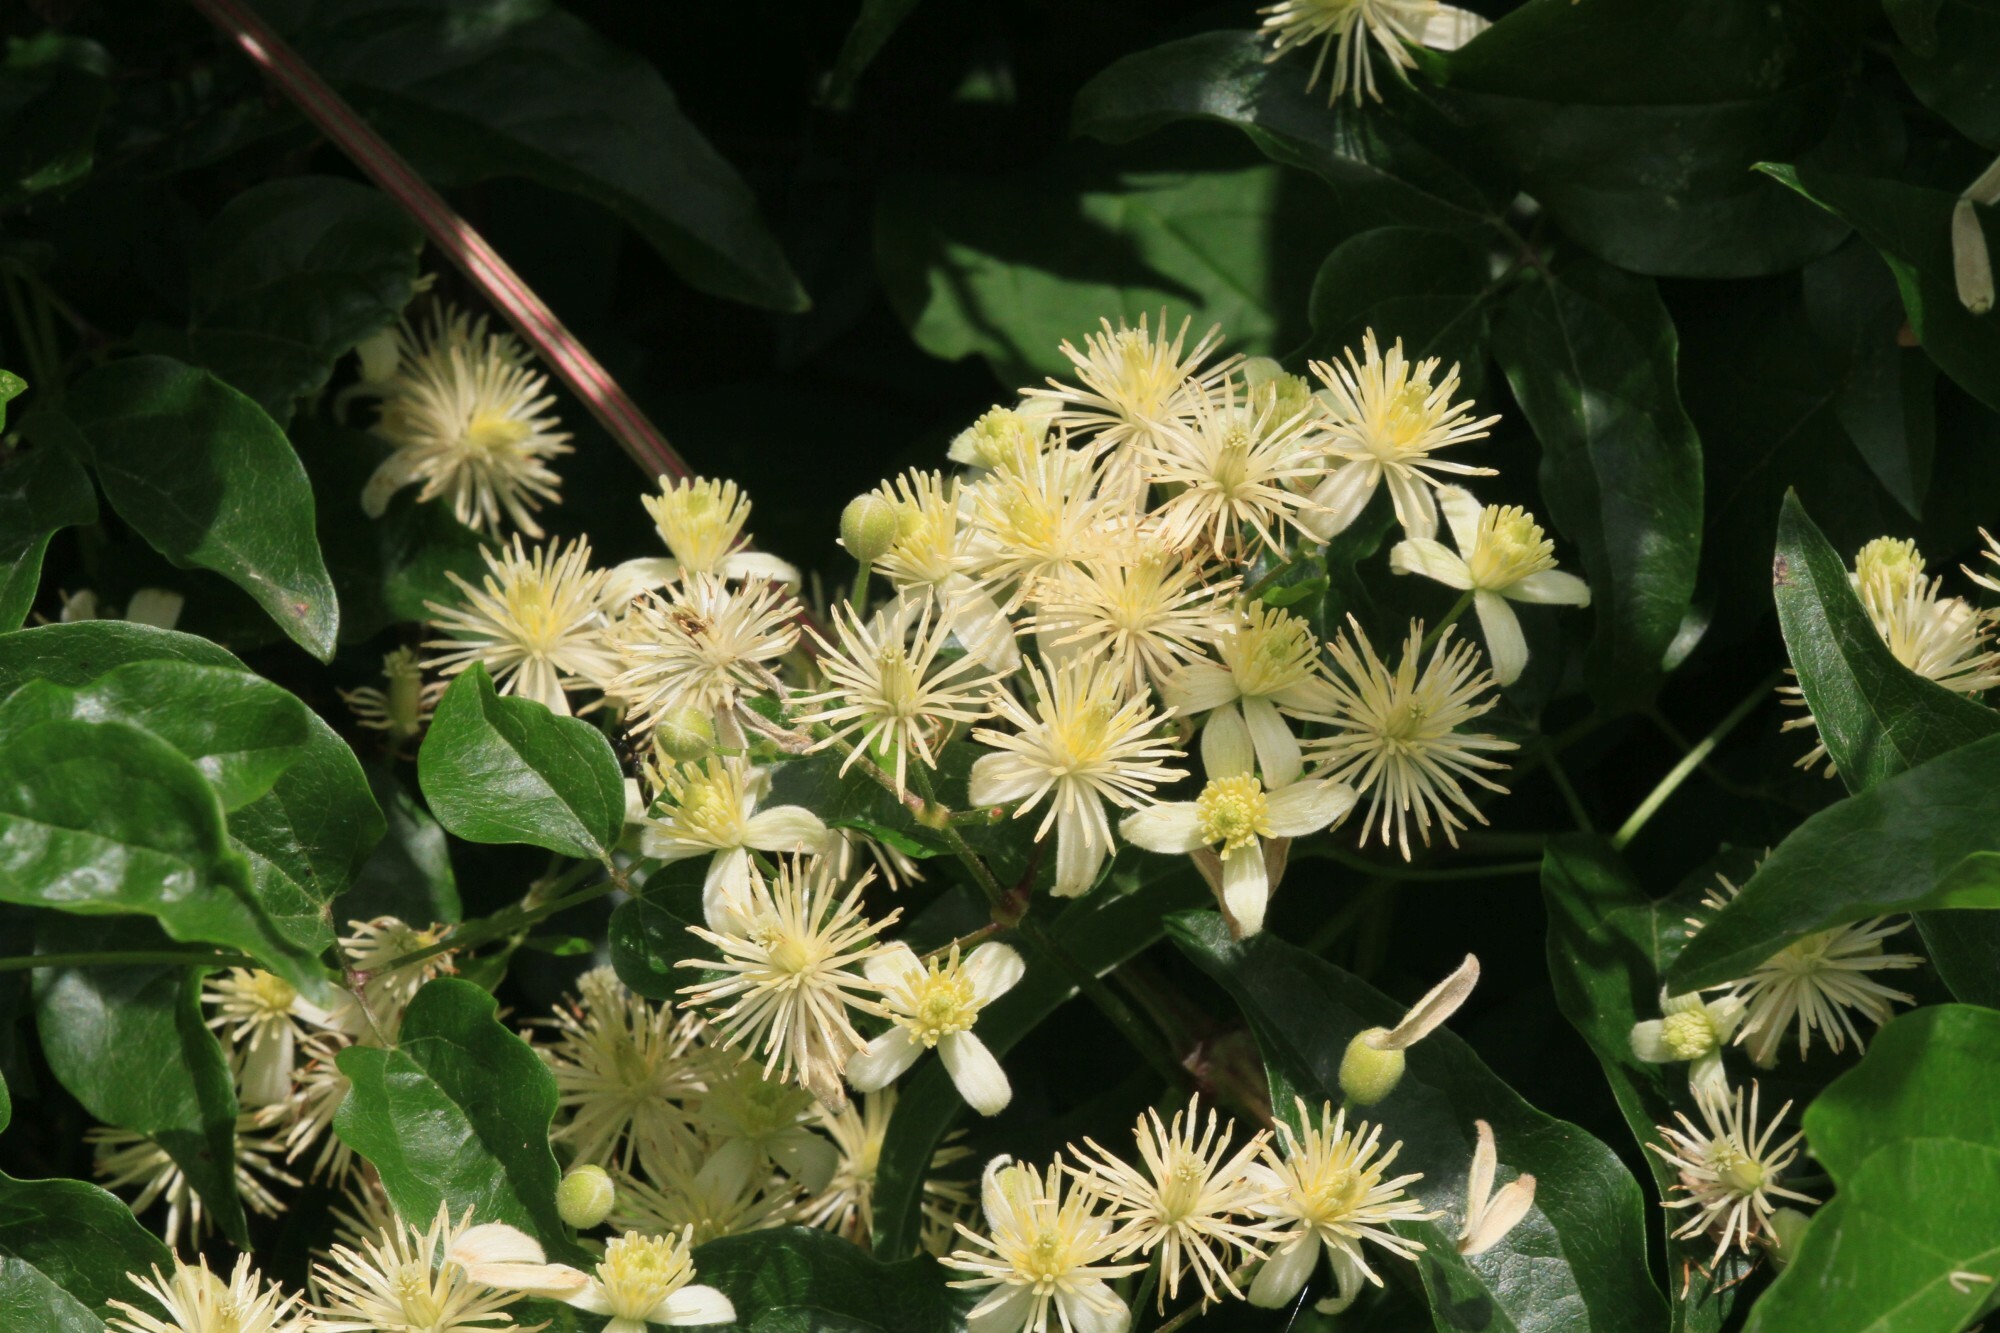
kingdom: Plantae
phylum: Tracheophyta
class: Magnoliopsida
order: Ranunculales
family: Ranunculaceae
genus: Clematis
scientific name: Clematis vitalba
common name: Evergreen clematis
